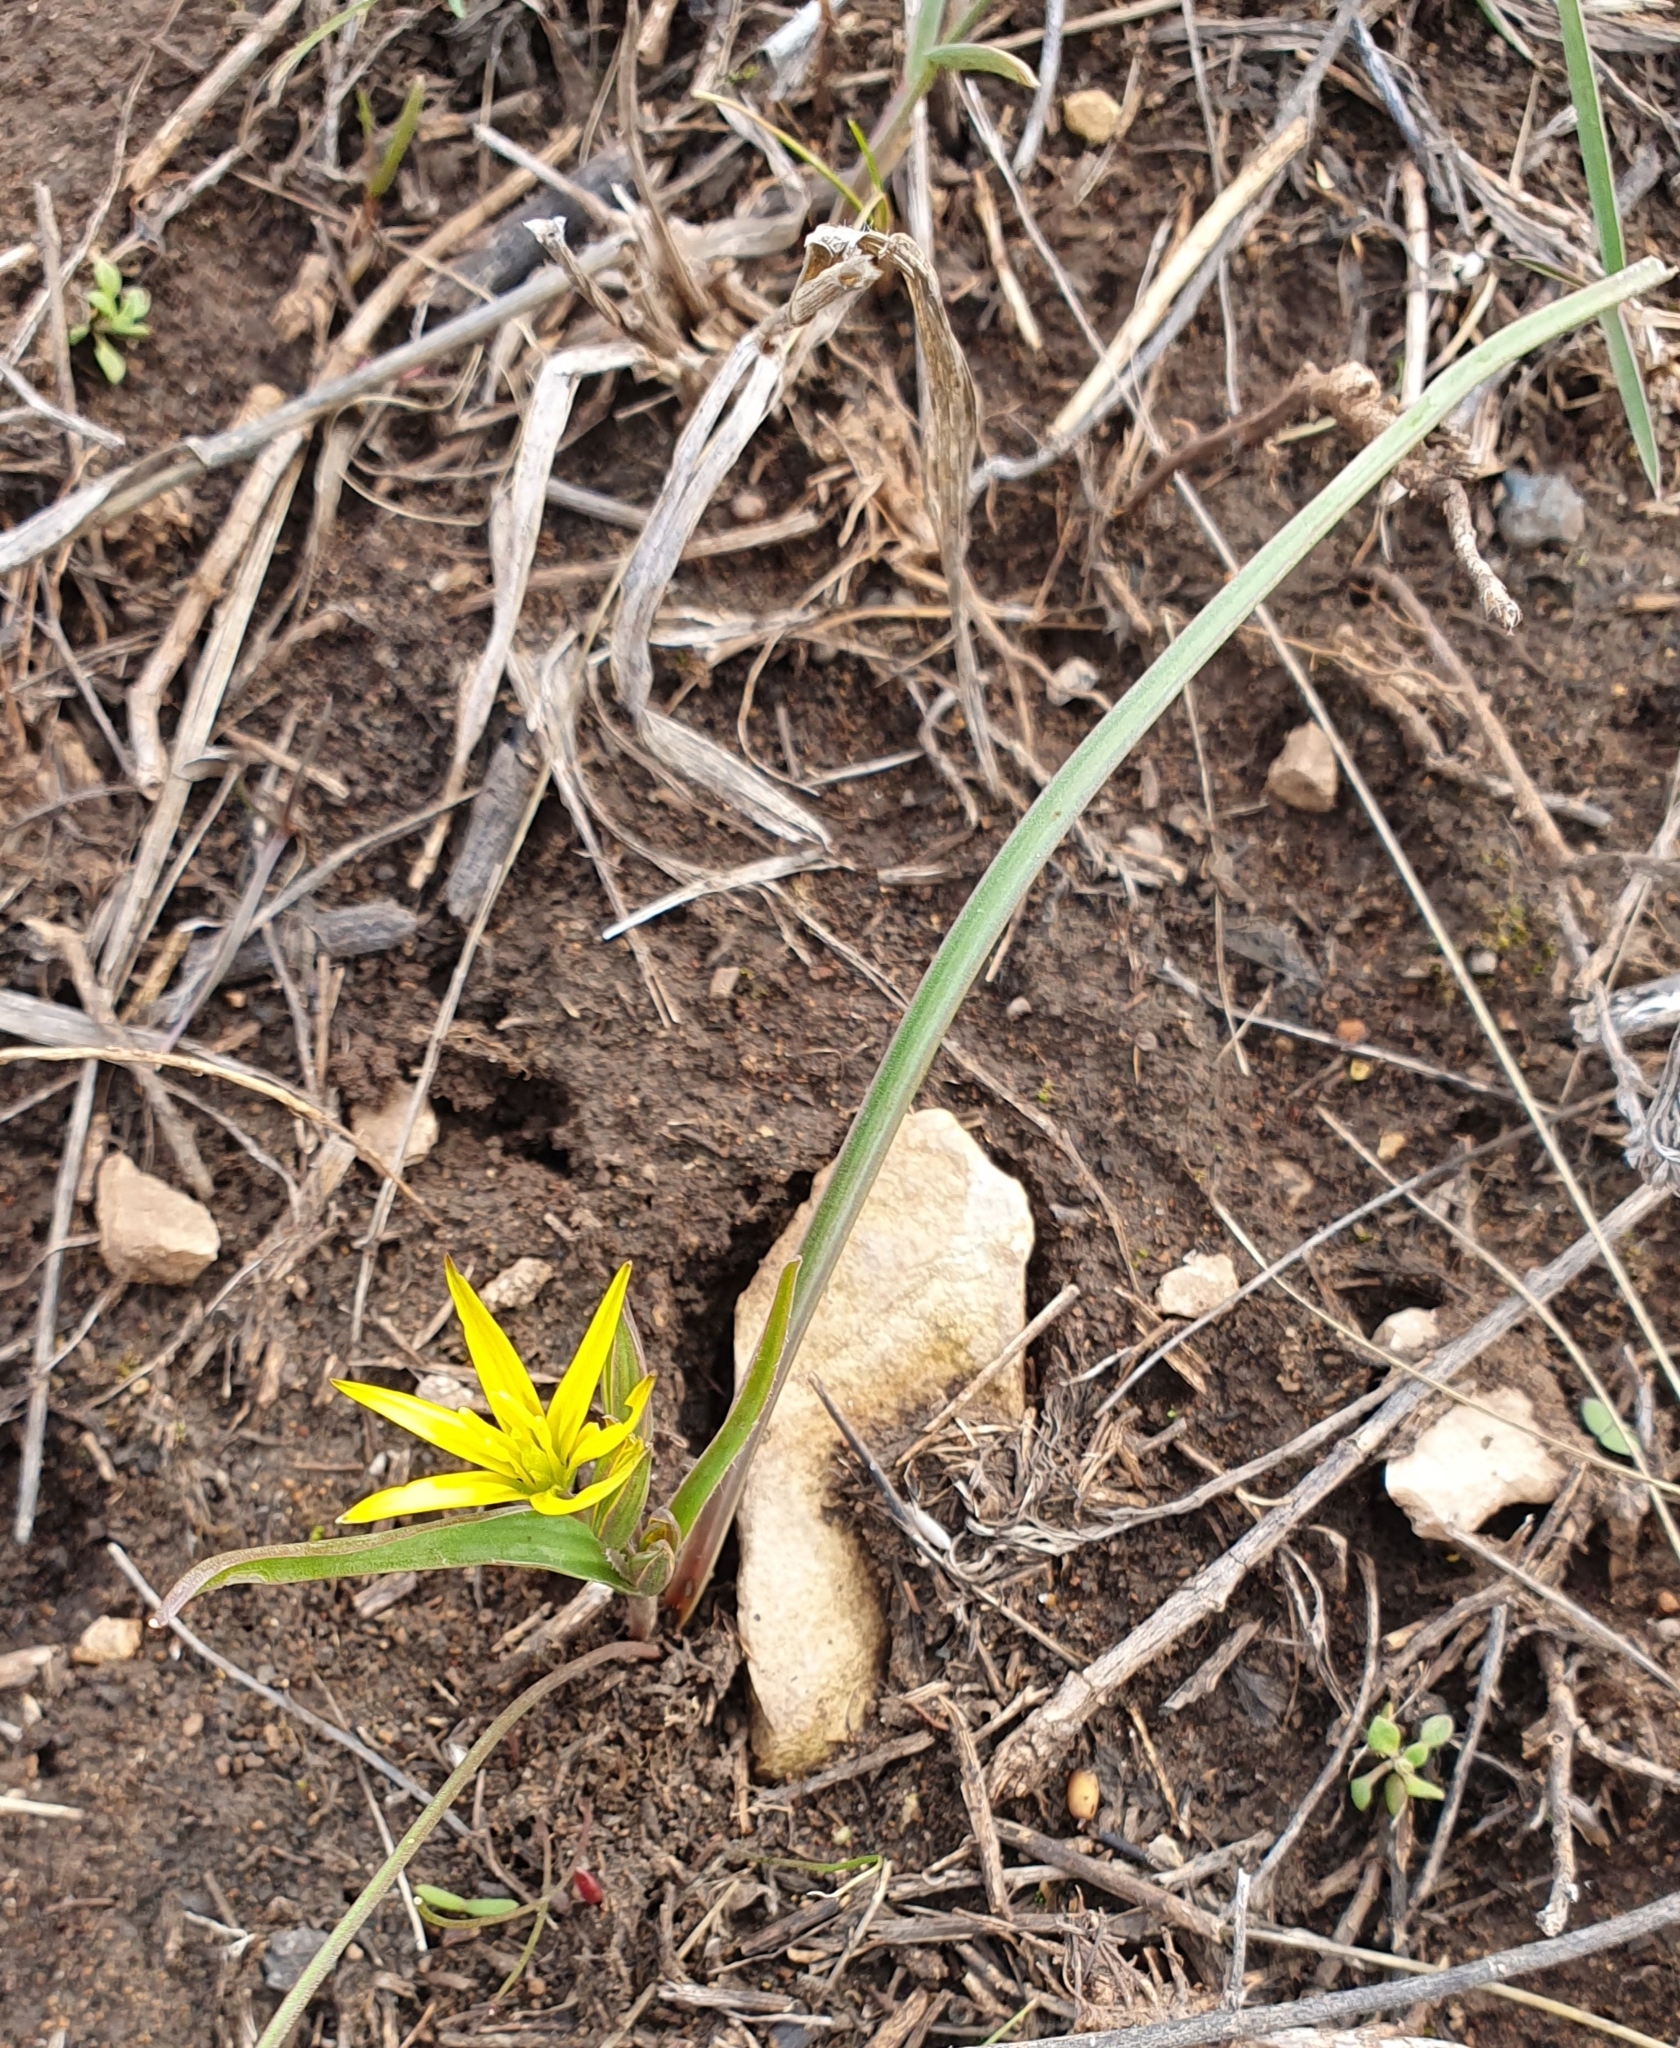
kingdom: Plantae
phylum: Tracheophyta
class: Liliopsida
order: Liliales
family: Liliaceae
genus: Gagea
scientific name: Gagea podolica
